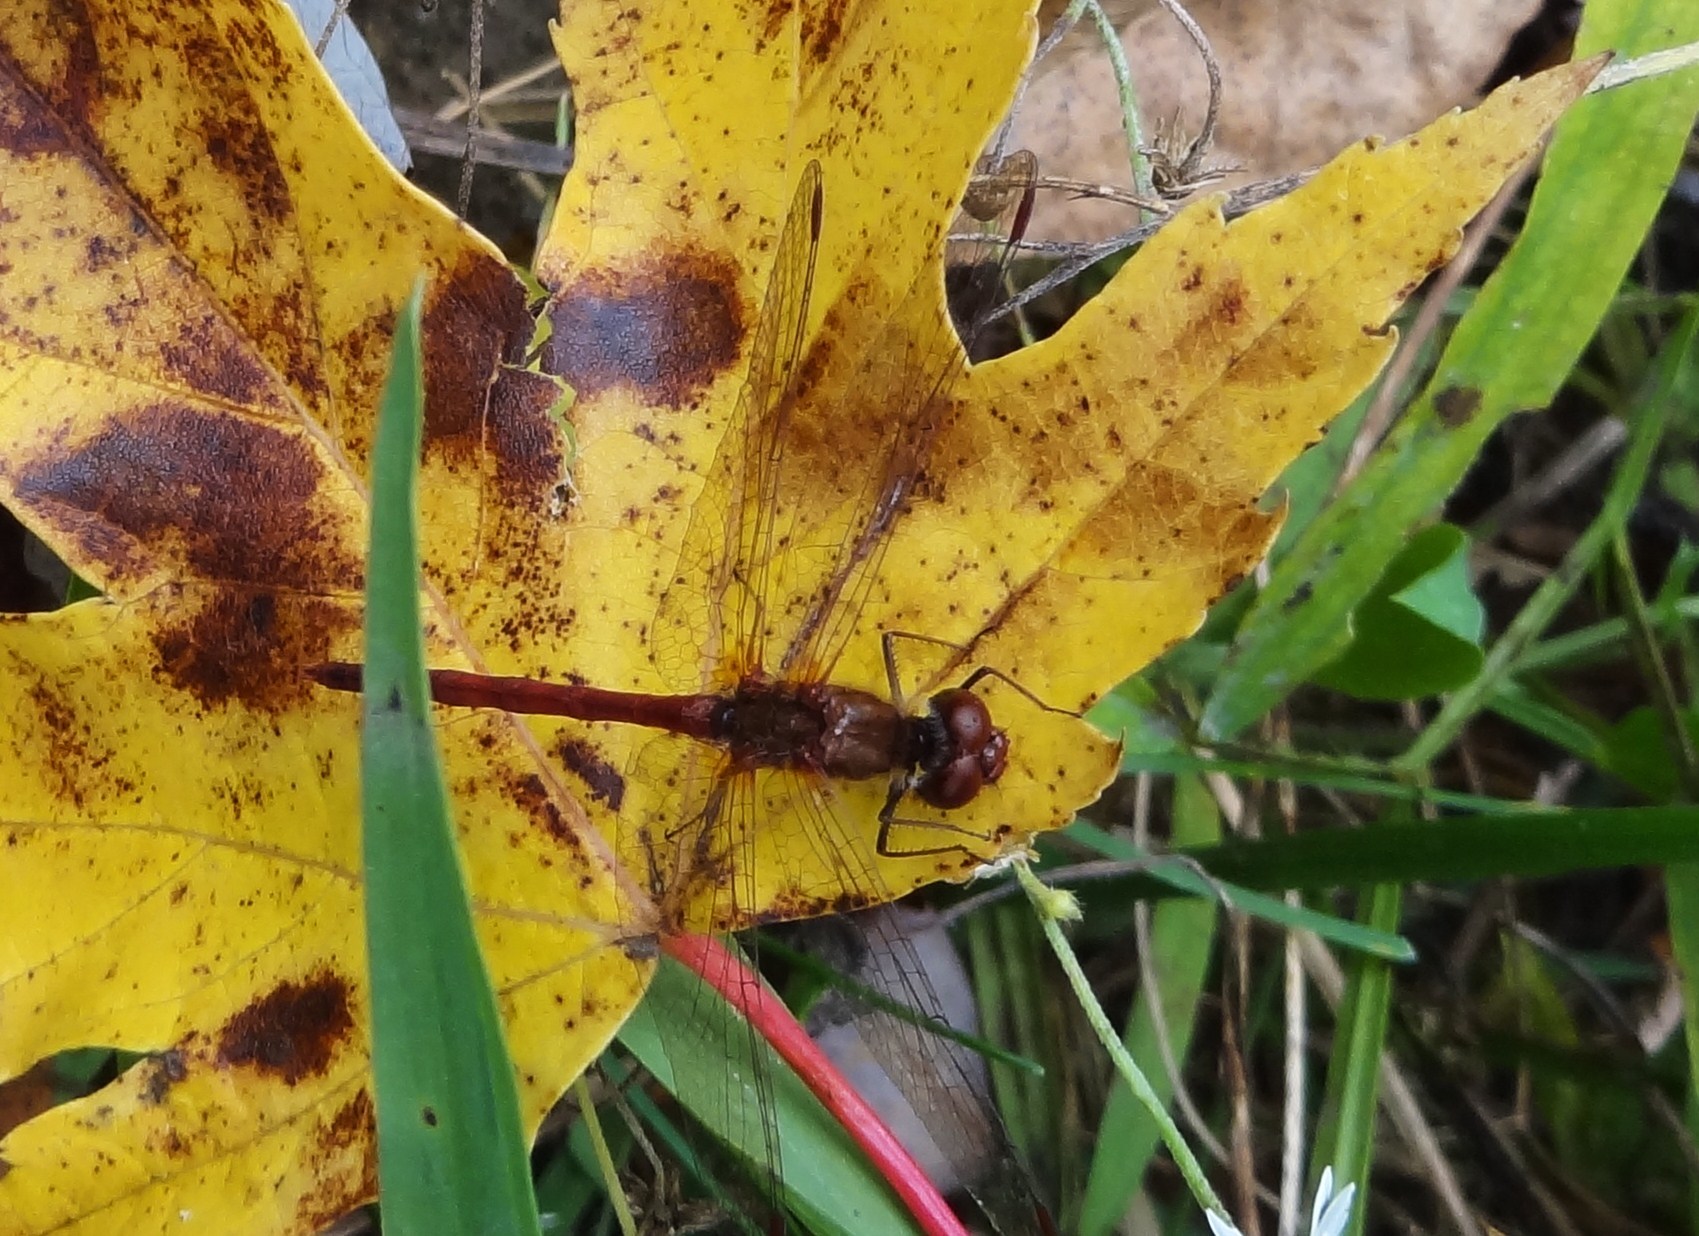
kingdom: Animalia
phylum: Arthropoda
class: Insecta
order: Odonata
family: Libellulidae
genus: Sympetrum
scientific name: Sympetrum vicinum
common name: Autumn meadowhawk
